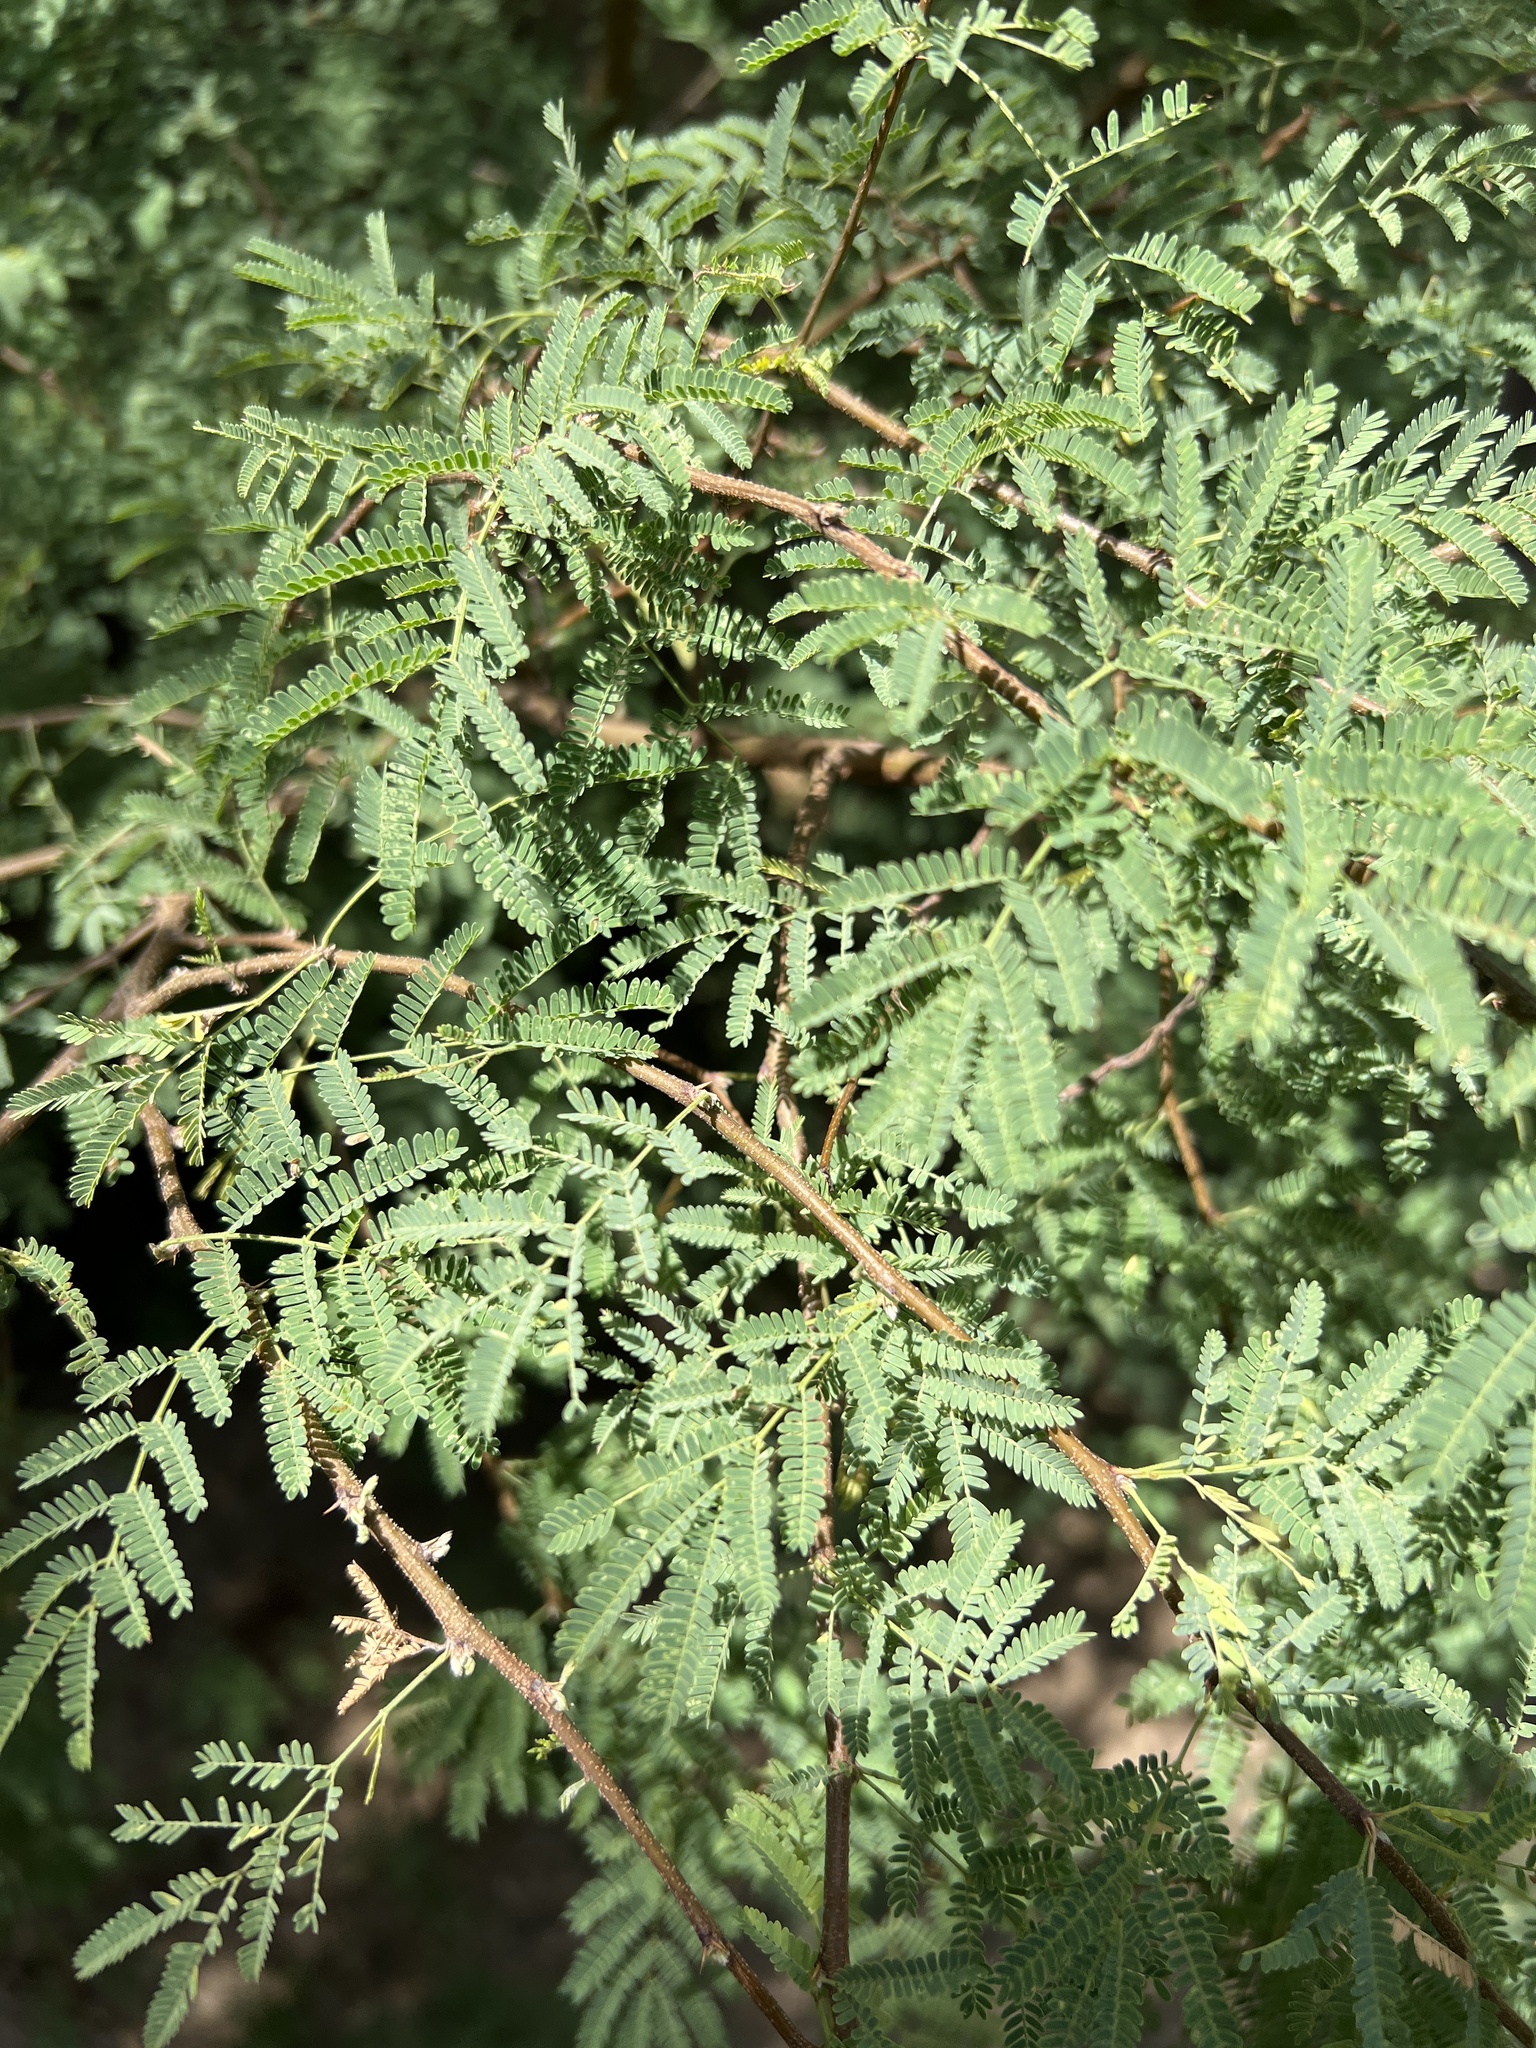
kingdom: Plantae
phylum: Tracheophyta
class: Magnoliopsida
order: Fabales
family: Fabaceae
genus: Vachellia
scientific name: Vachellia farnesiana
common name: Sweet acacia
